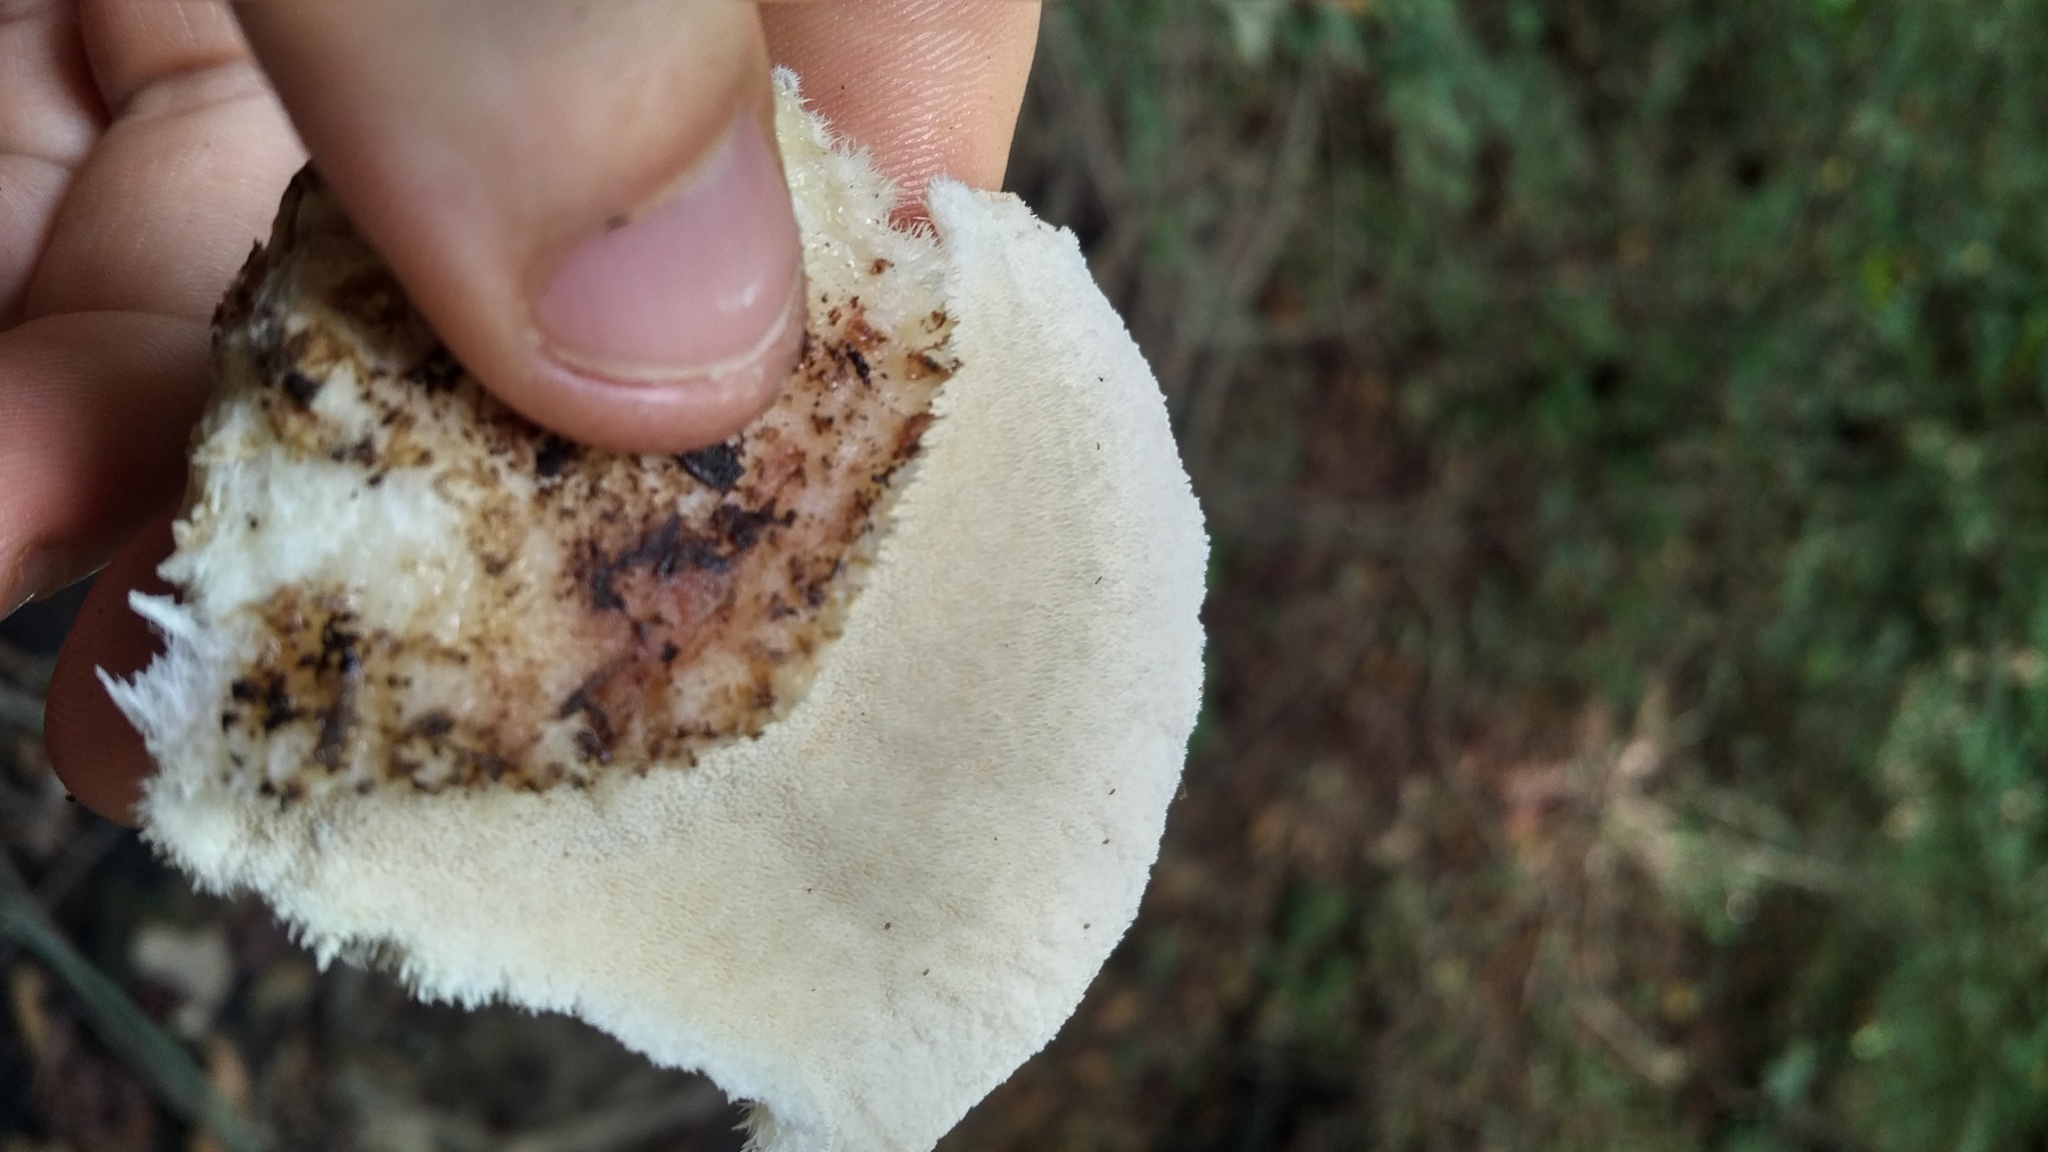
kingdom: Fungi
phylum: Basidiomycota
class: Agaricomycetes
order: Polyporales
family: Meruliaceae
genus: Donkia
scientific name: Donkia pulcherrima
